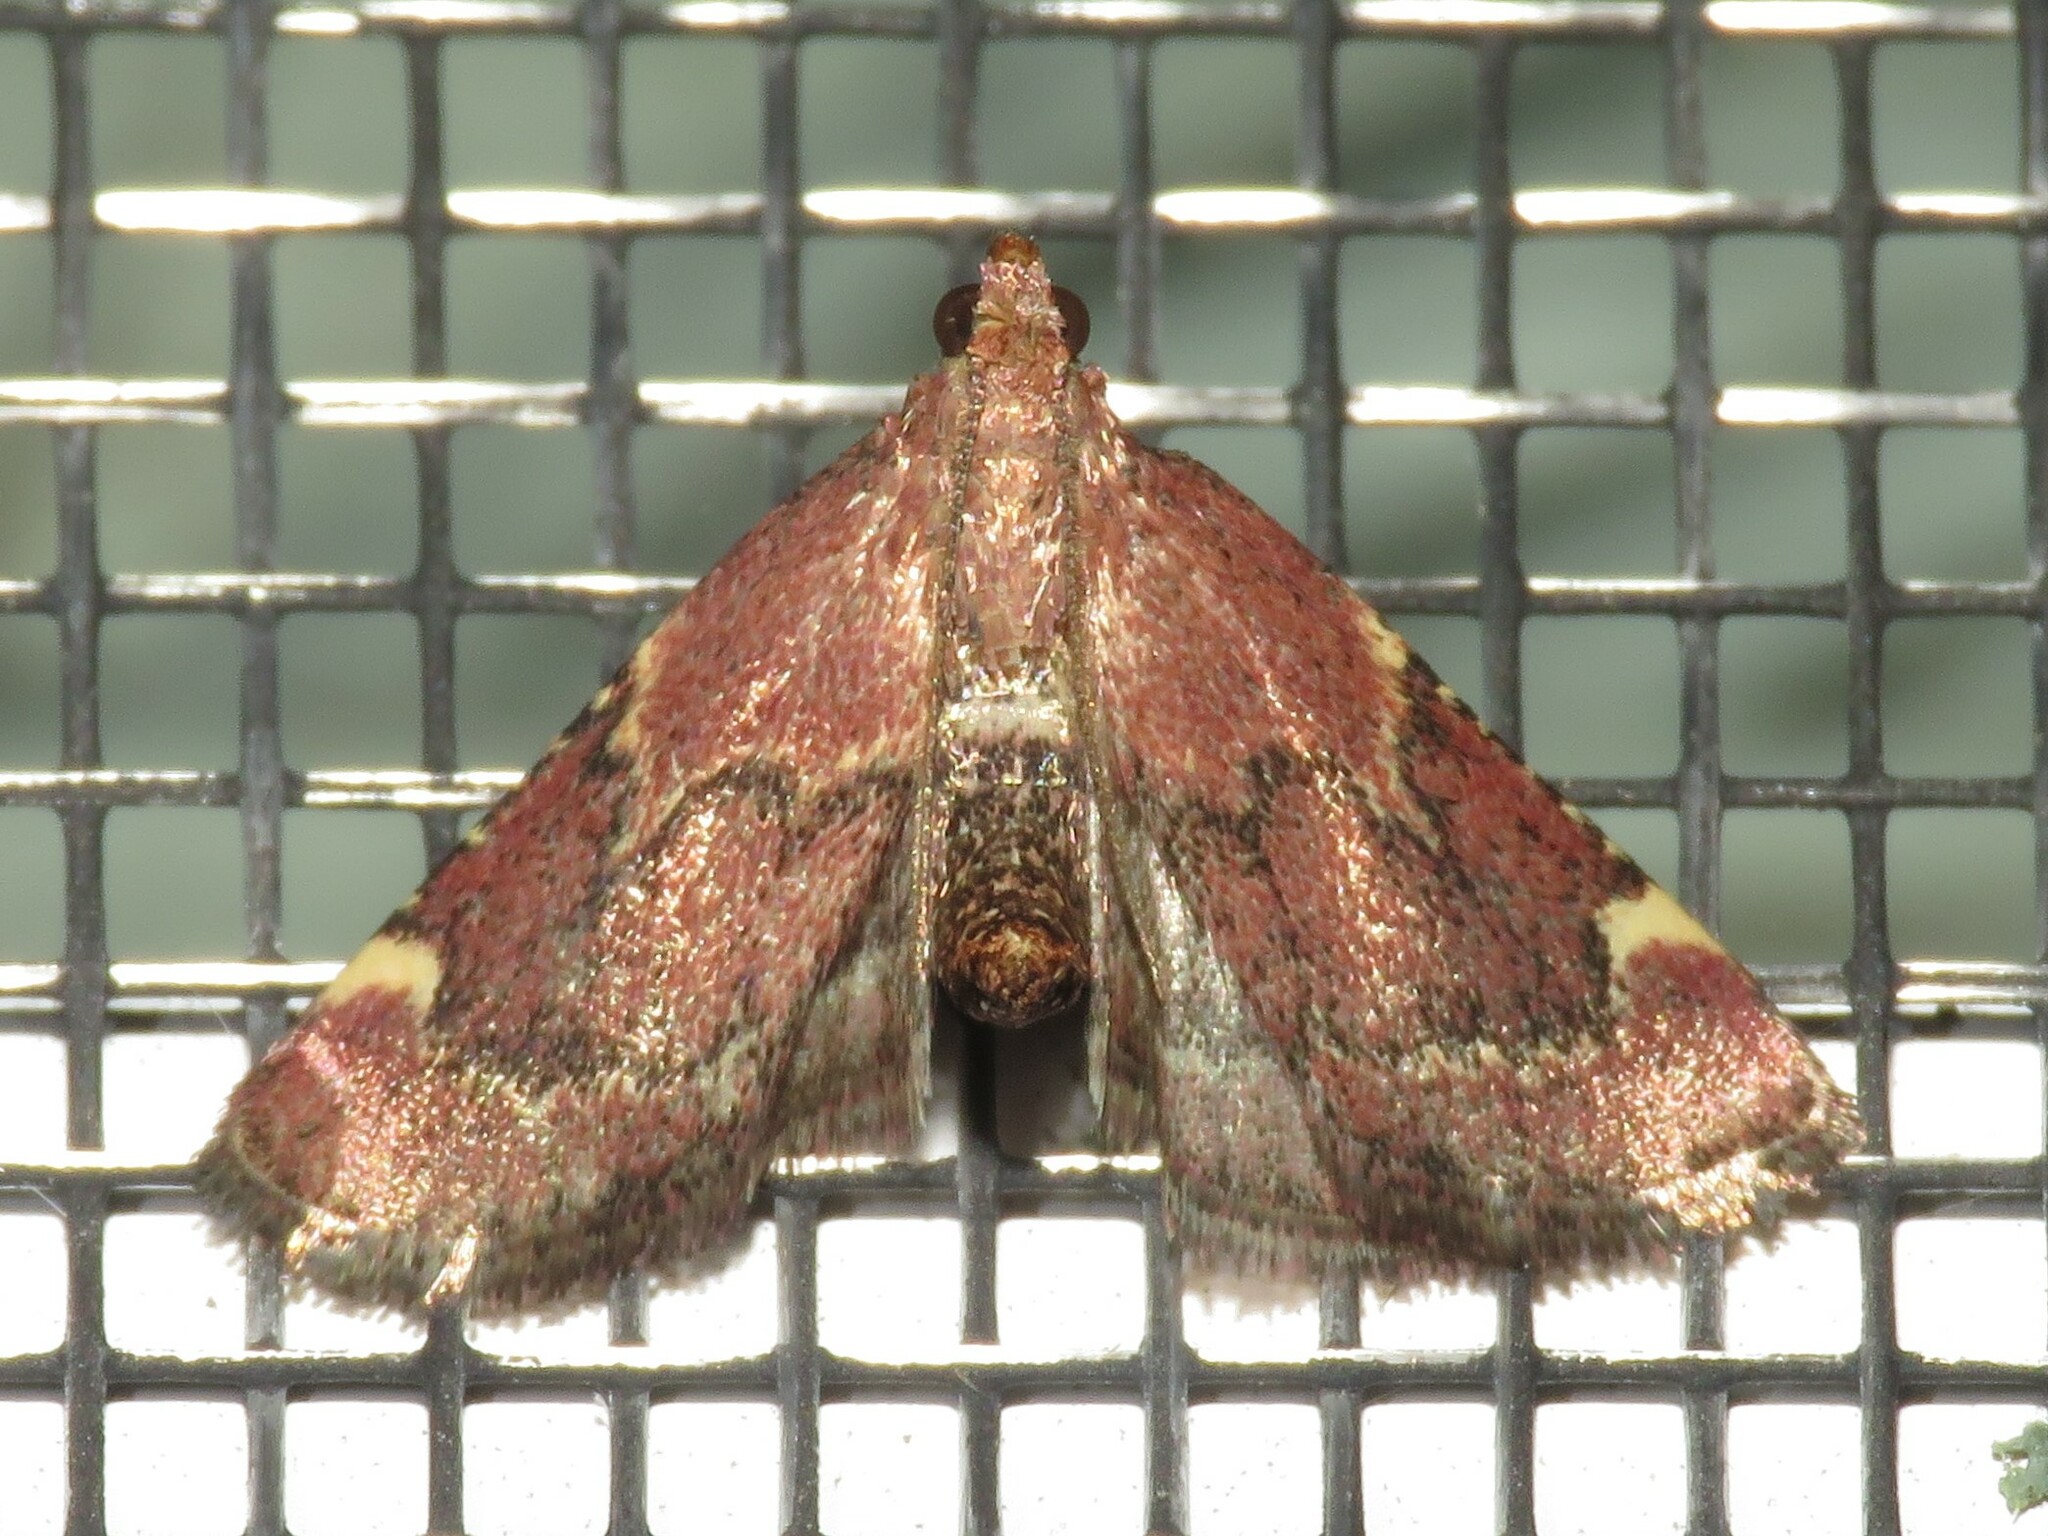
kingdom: Animalia
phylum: Arthropoda
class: Insecta
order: Lepidoptera
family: Pyralidae
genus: Hypsopygia
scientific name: Hypsopygia intermedialis
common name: Red-shawled moth
